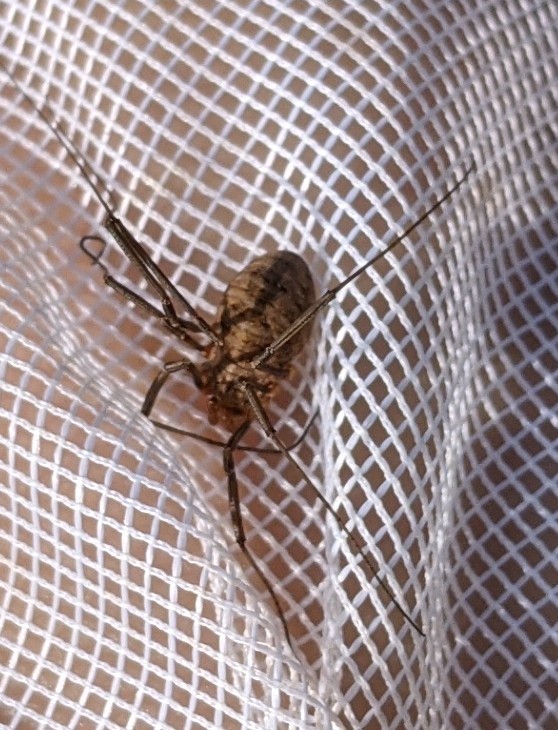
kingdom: Animalia
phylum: Arthropoda
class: Arachnida
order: Opiliones
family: Phalangiidae
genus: Phalangium
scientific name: Phalangium opilio
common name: Daddy longleg
